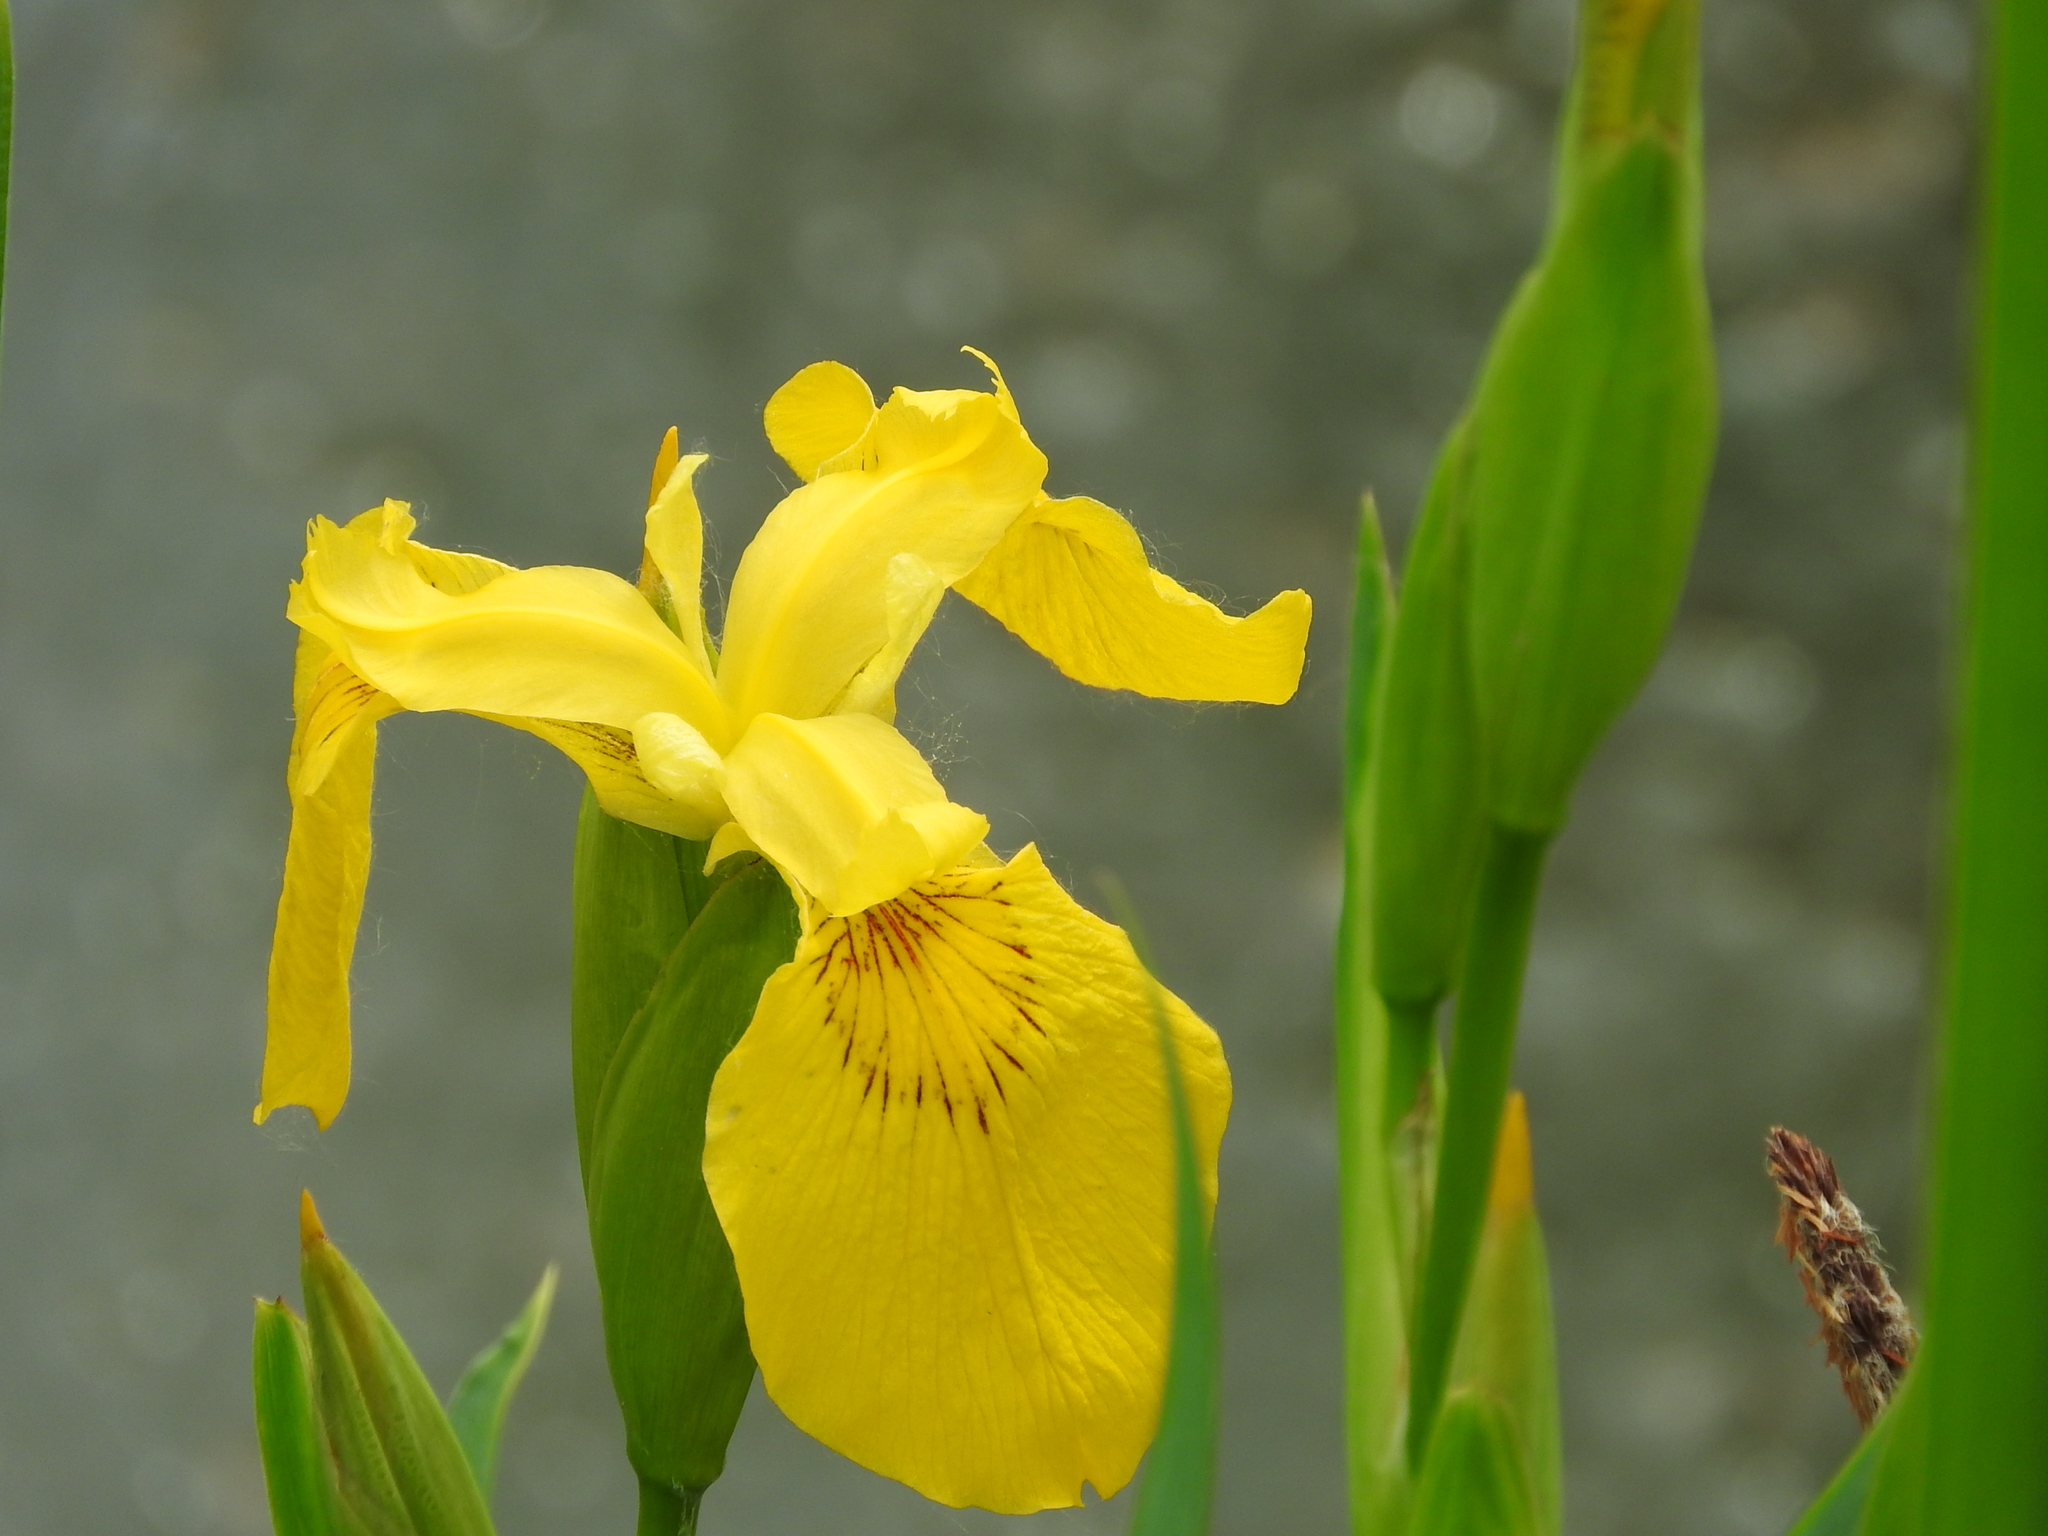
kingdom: Plantae
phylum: Tracheophyta
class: Liliopsida
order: Asparagales
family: Iridaceae
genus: Iris
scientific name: Iris pseudacorus
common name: Yellow flag
